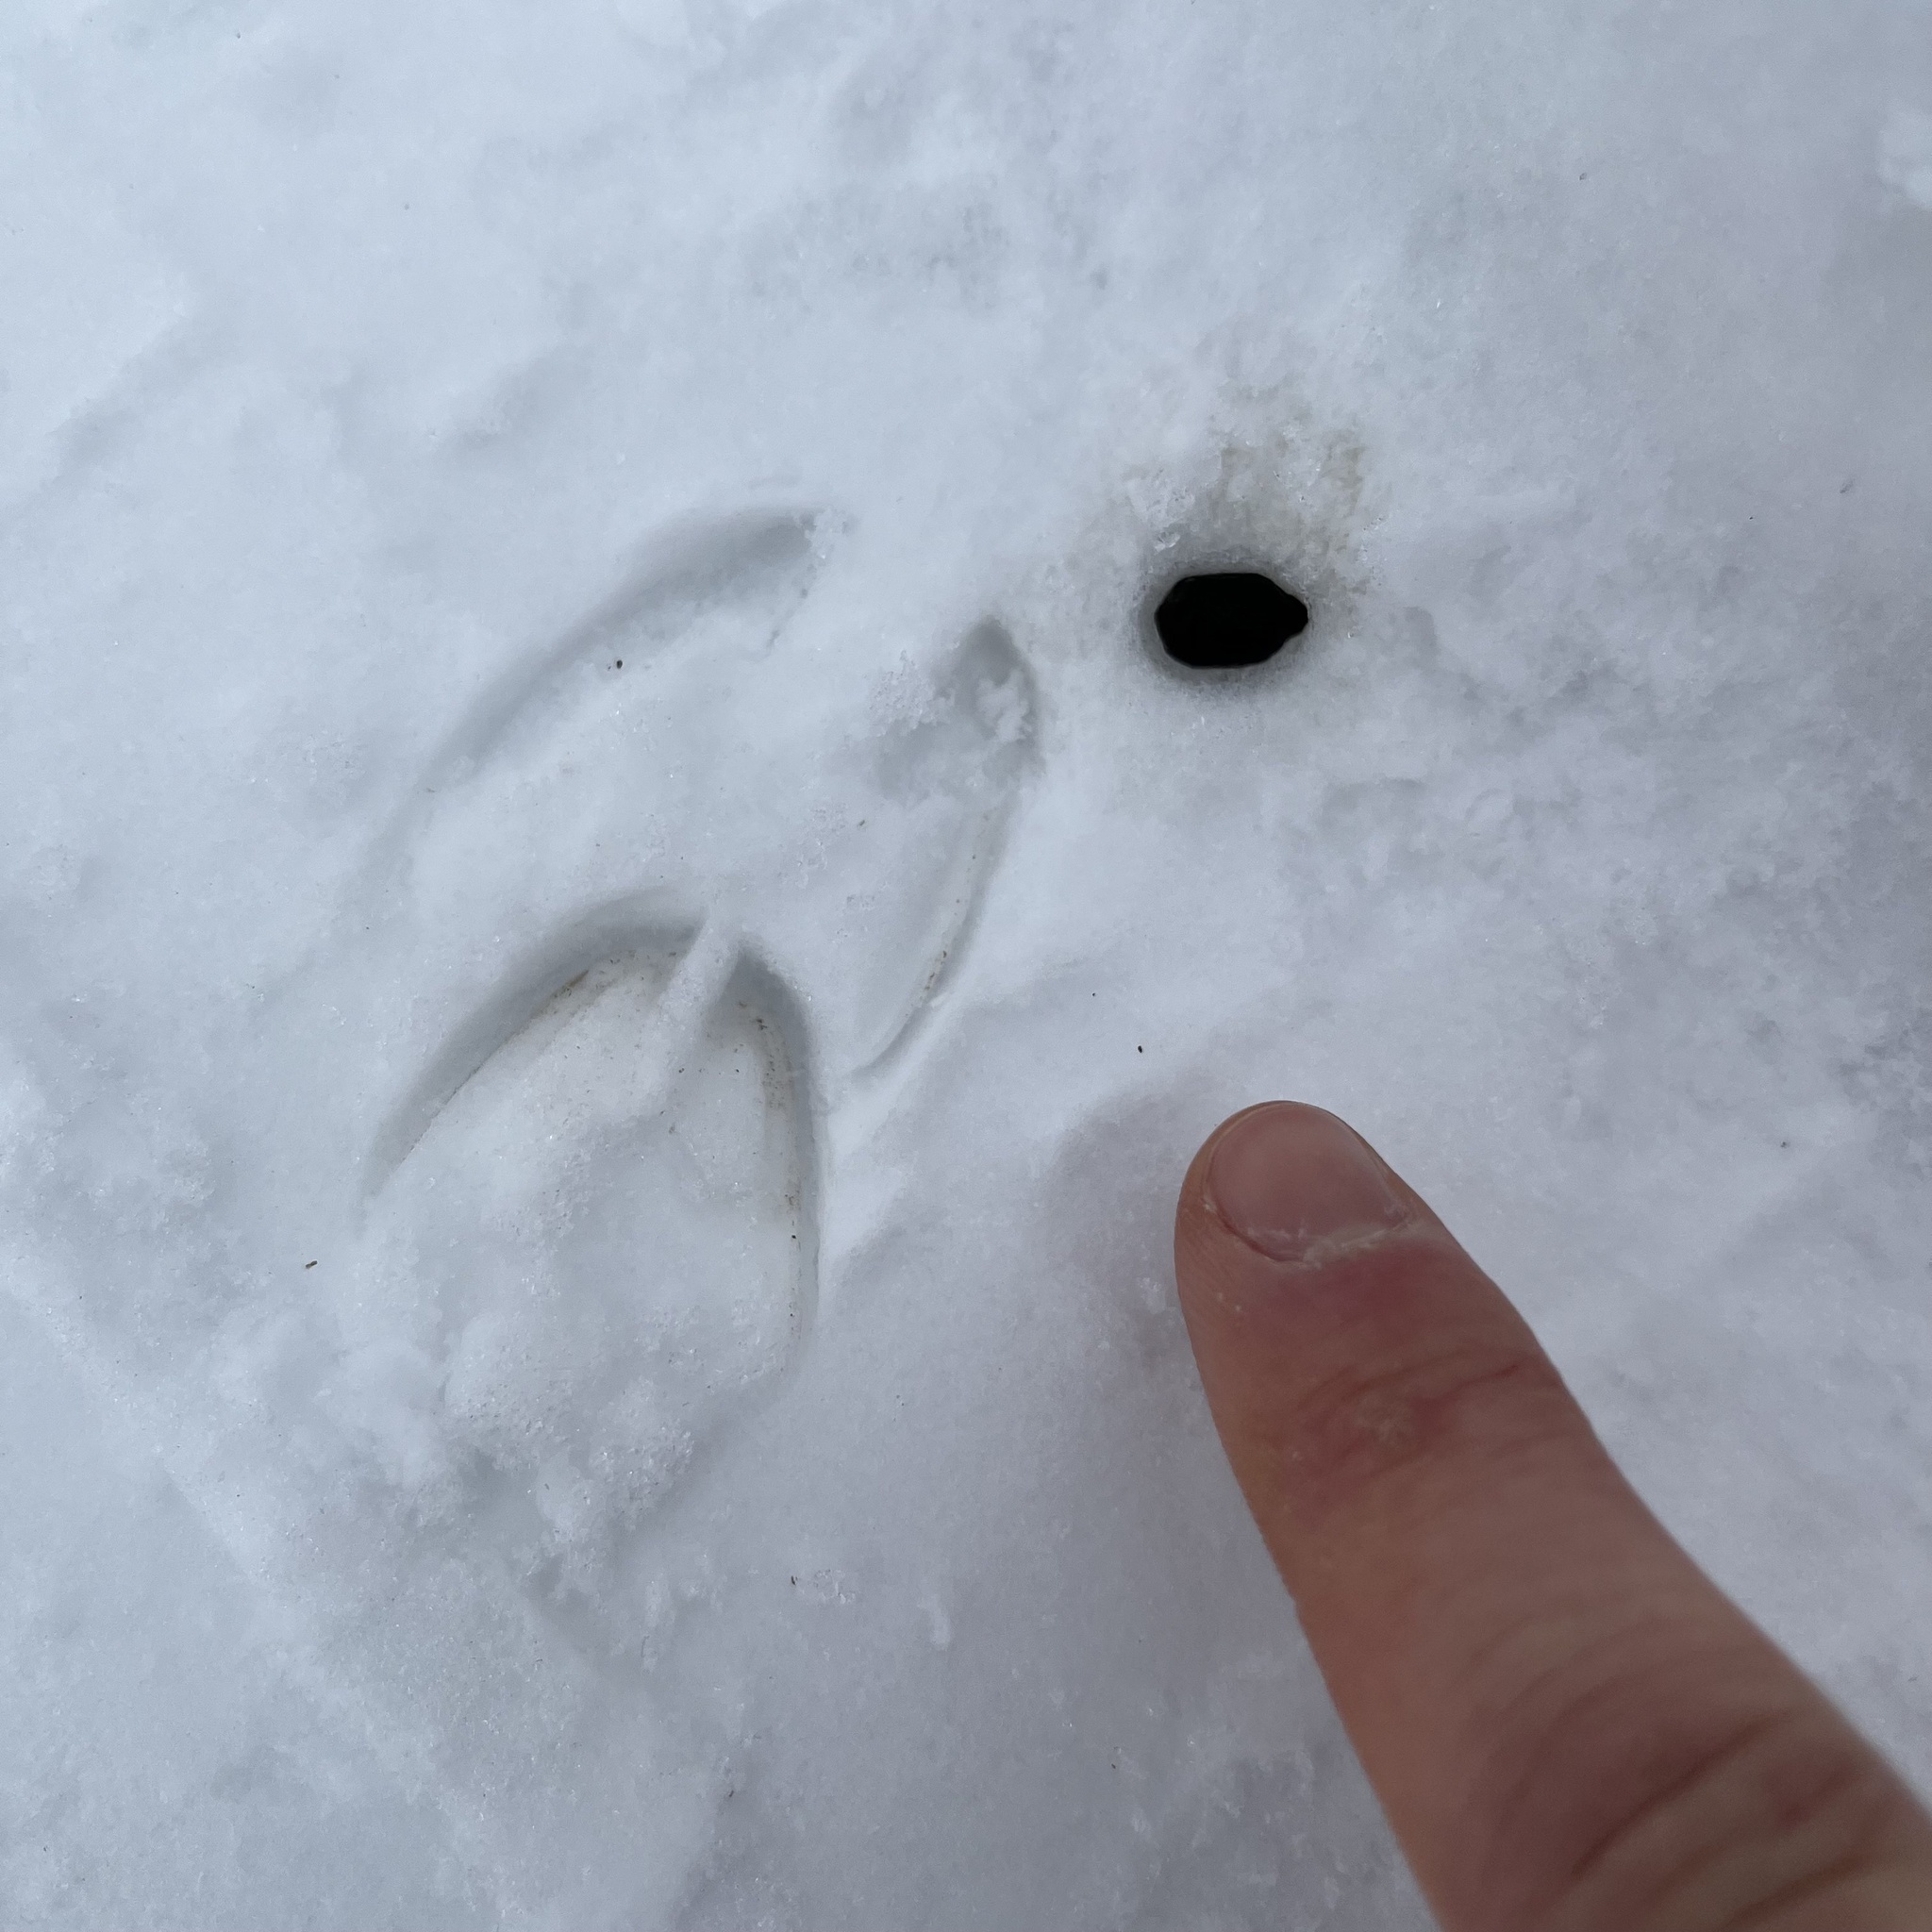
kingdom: Animalia
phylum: Chordata
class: Mammalia
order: Artiodactyla
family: Cervidae
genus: Capreolus
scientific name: Capreolus capreolus
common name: Western roe deer
